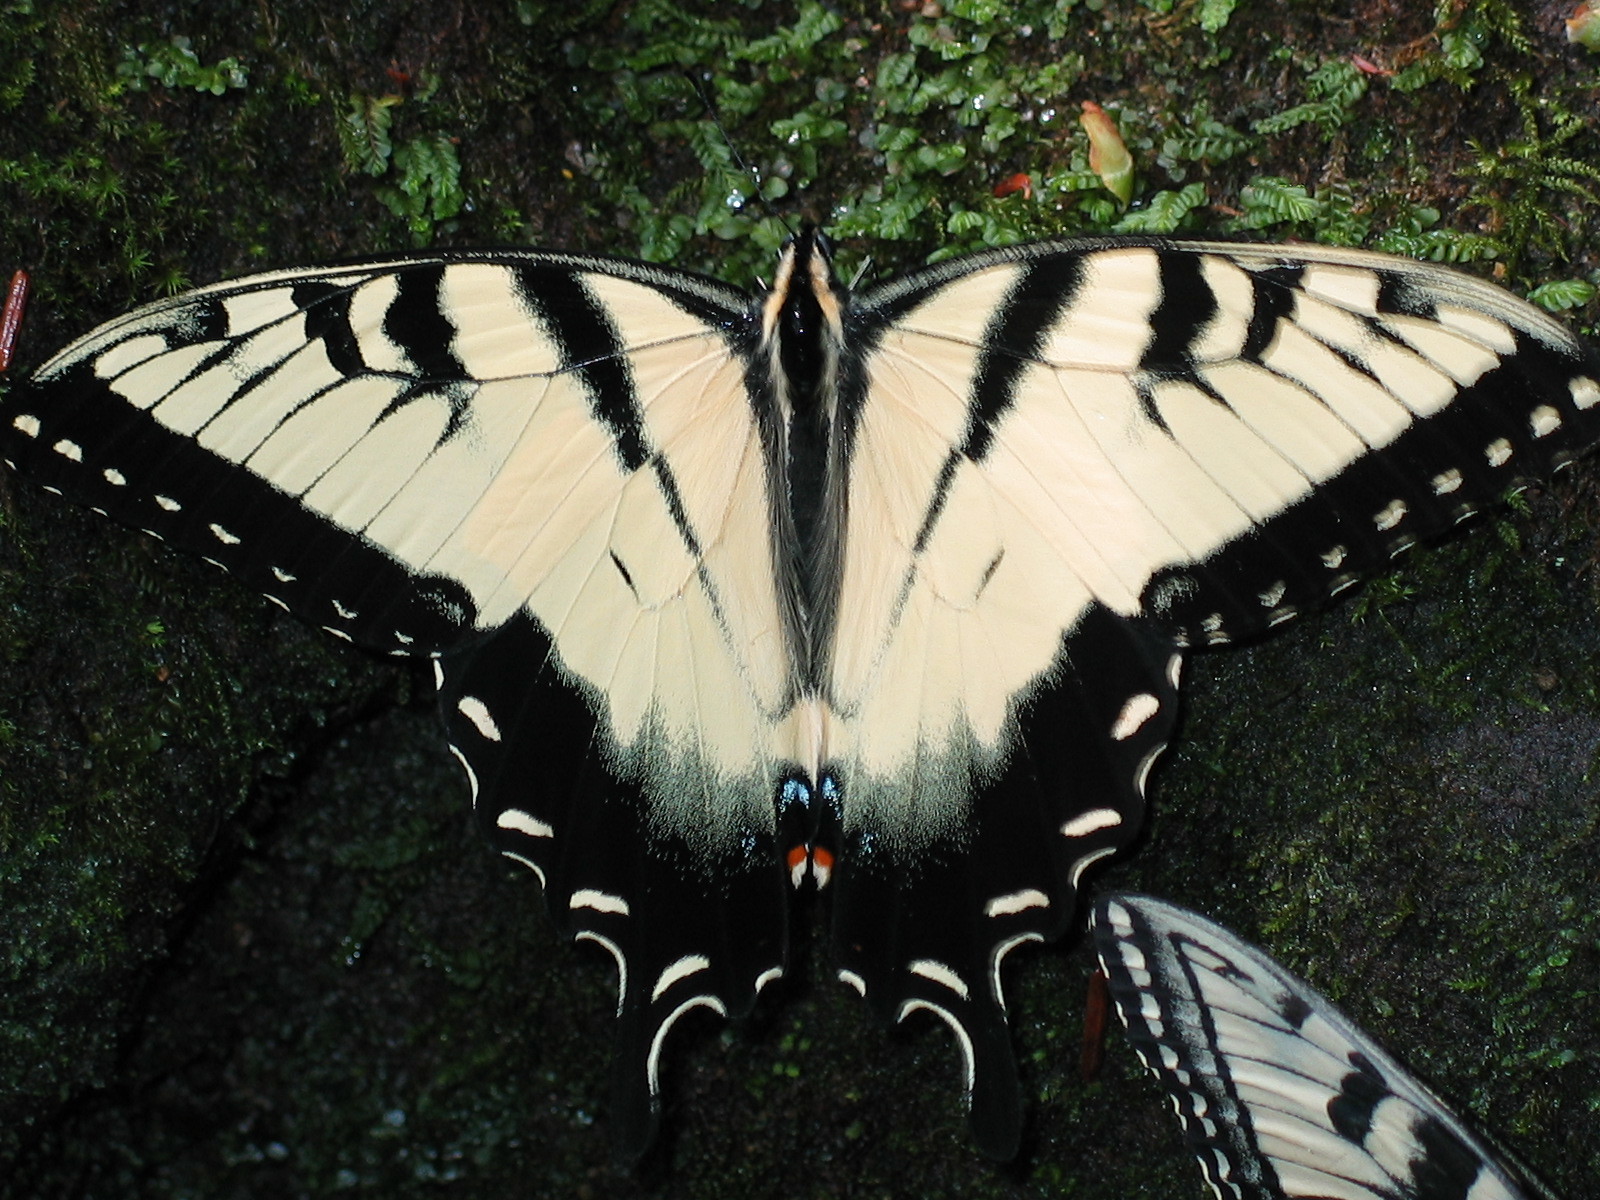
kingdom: Animalia
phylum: Arthropoda
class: Insecta
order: Lepidoptera
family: Papilionidae
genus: Papilio
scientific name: Papilio glaucus
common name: Tiger swallowtail
